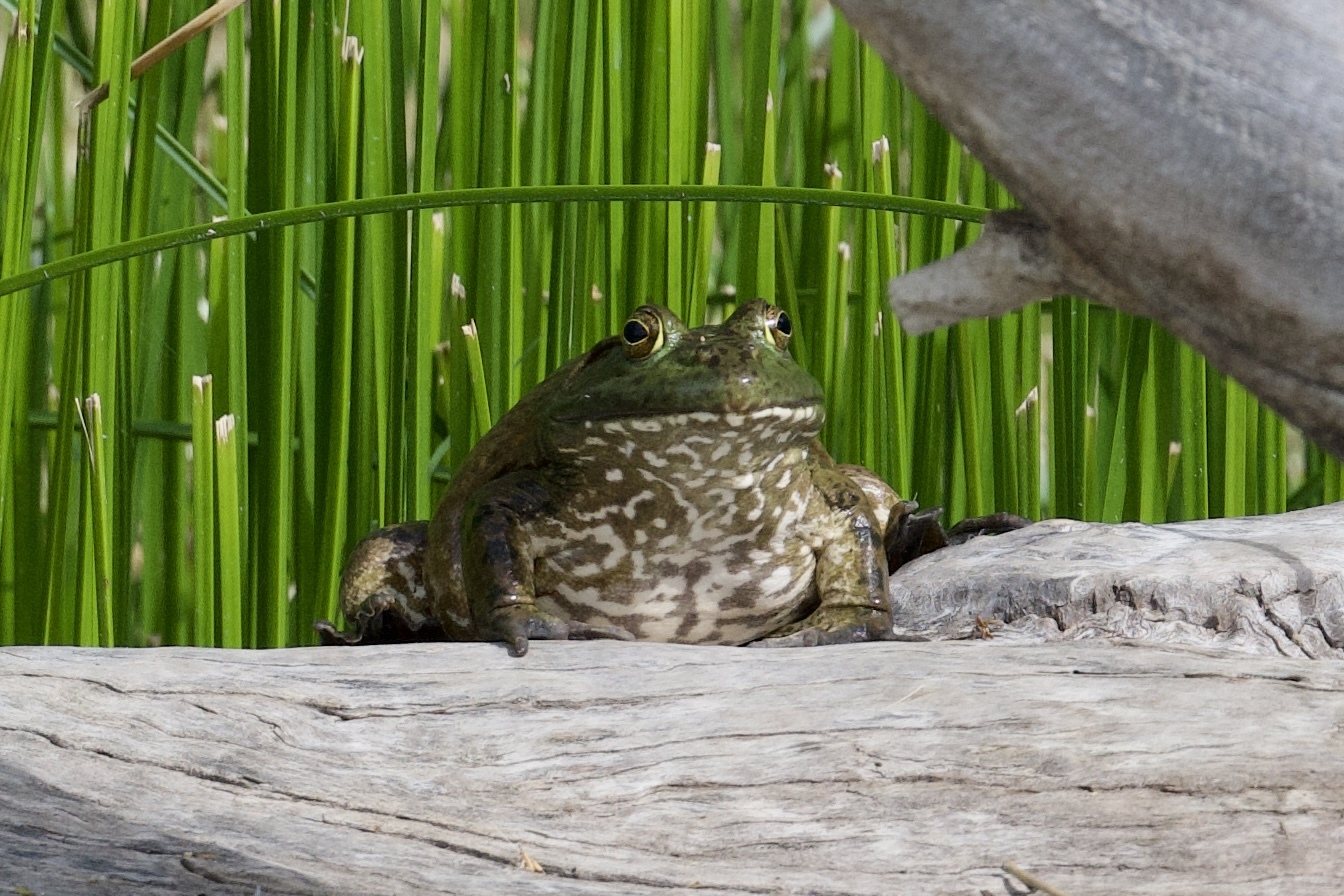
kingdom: Animalia
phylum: Chordata
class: Amphibia
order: Anura
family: Ranidae
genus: Lithobates
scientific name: Lithobates catesbeianus
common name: American bullfrog
